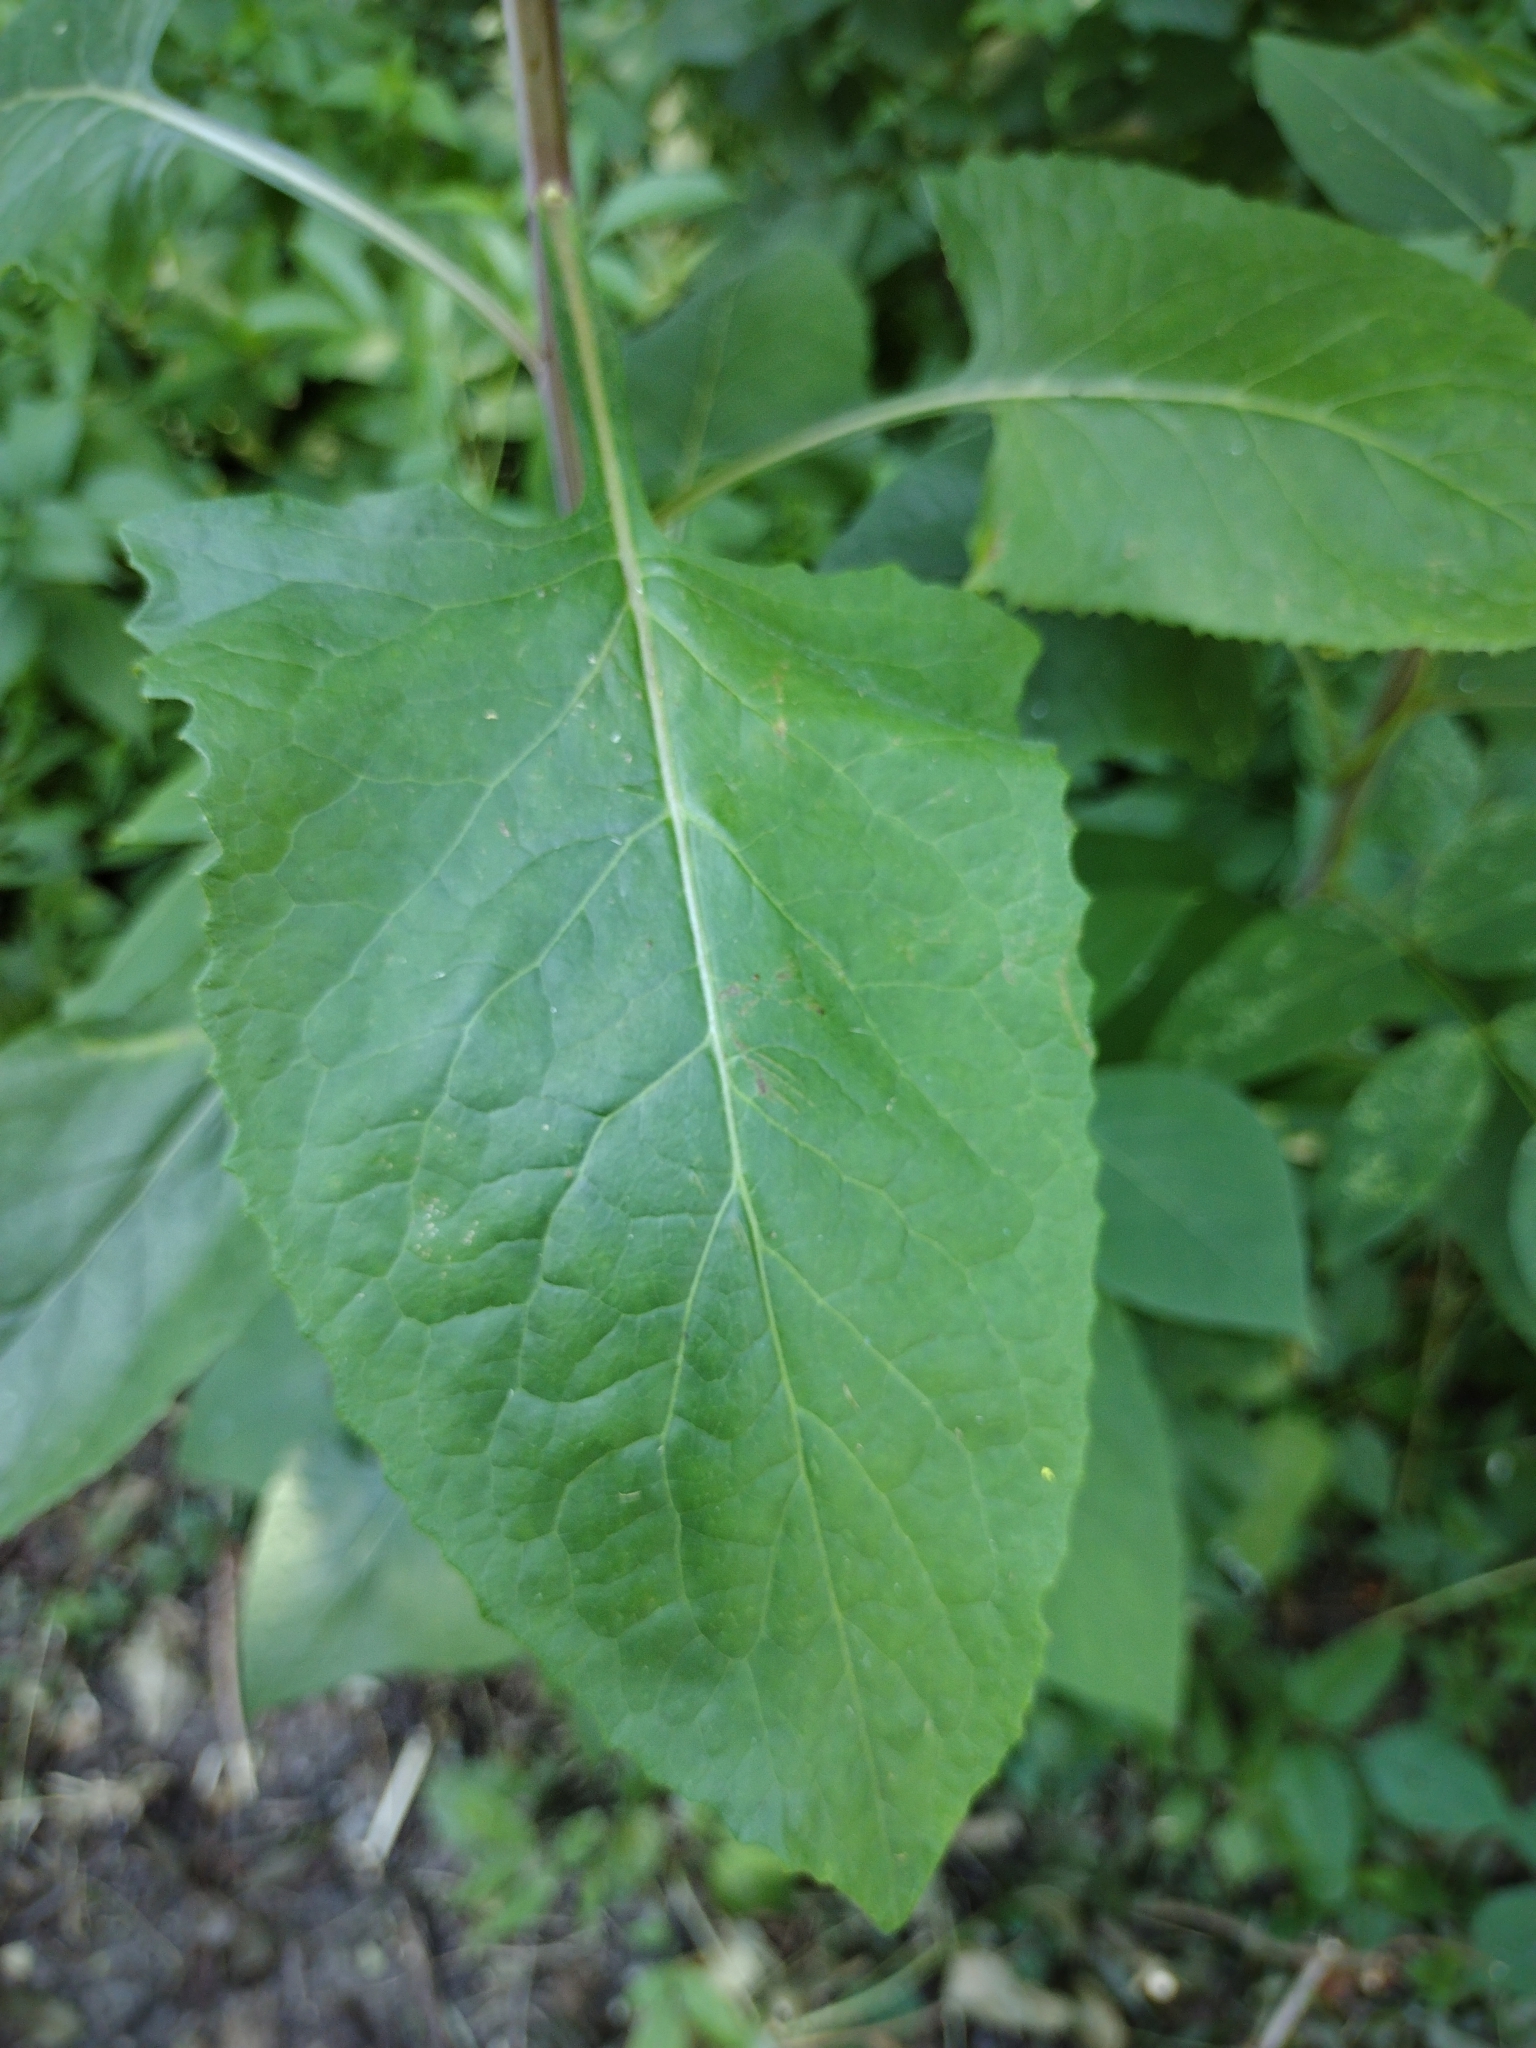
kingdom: Plantae
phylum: Tracheophyta
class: Magnoliopsida
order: Asterales
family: Asteraceae
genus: Lactuca
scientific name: Lactuca floridana
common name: Woodland lettuce
